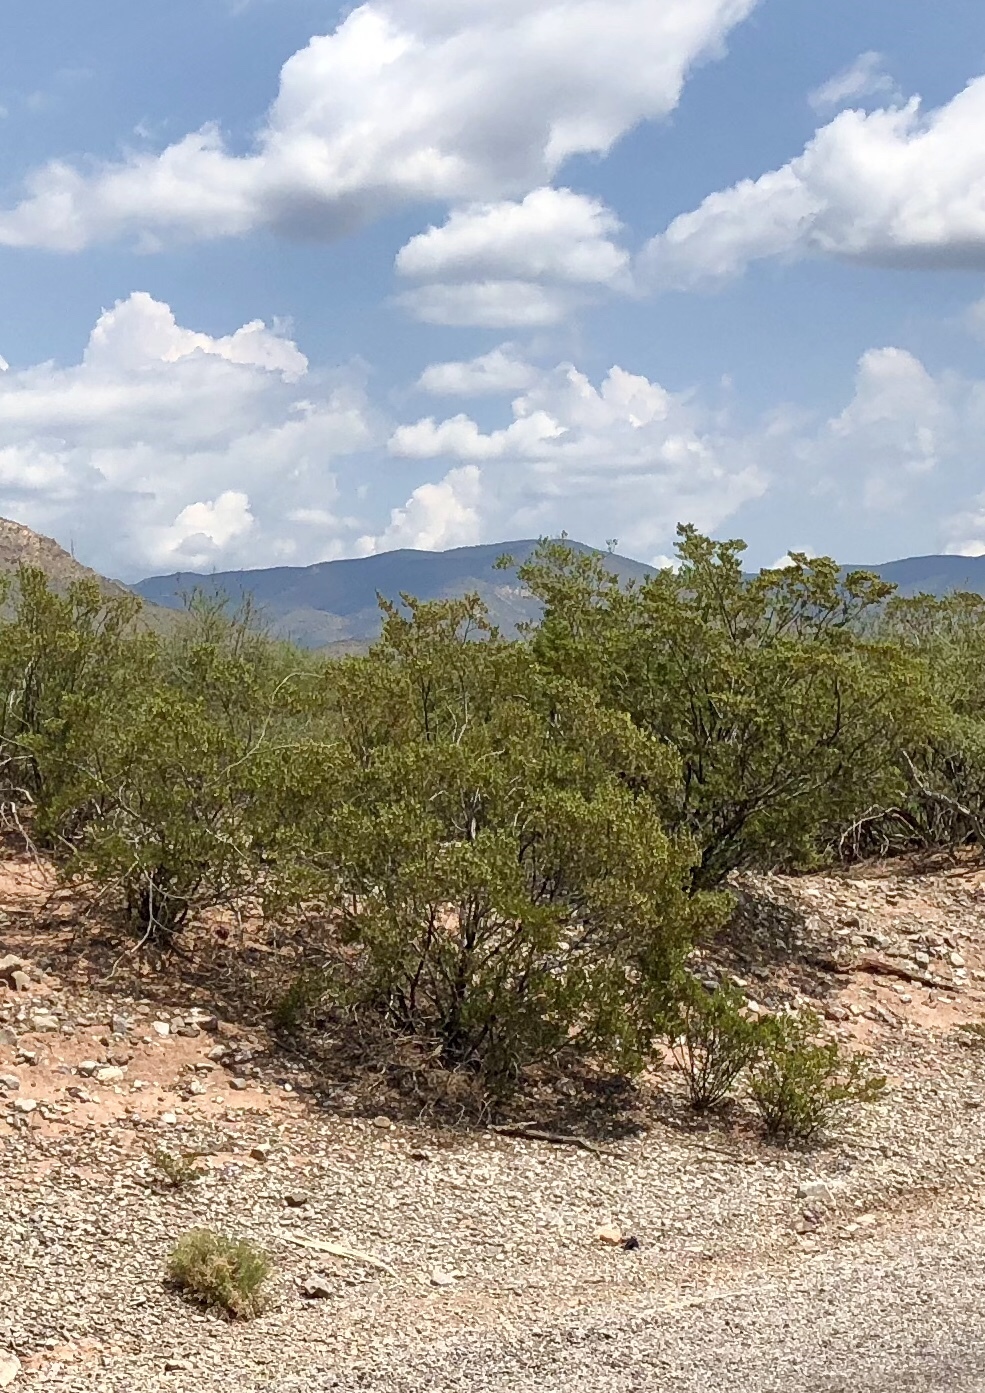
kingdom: Plantae
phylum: Tracheophyta
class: Magnoliopsida
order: Zygophyllales
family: Zygophyllaceae
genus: Larrea
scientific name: Larrea tridentata
